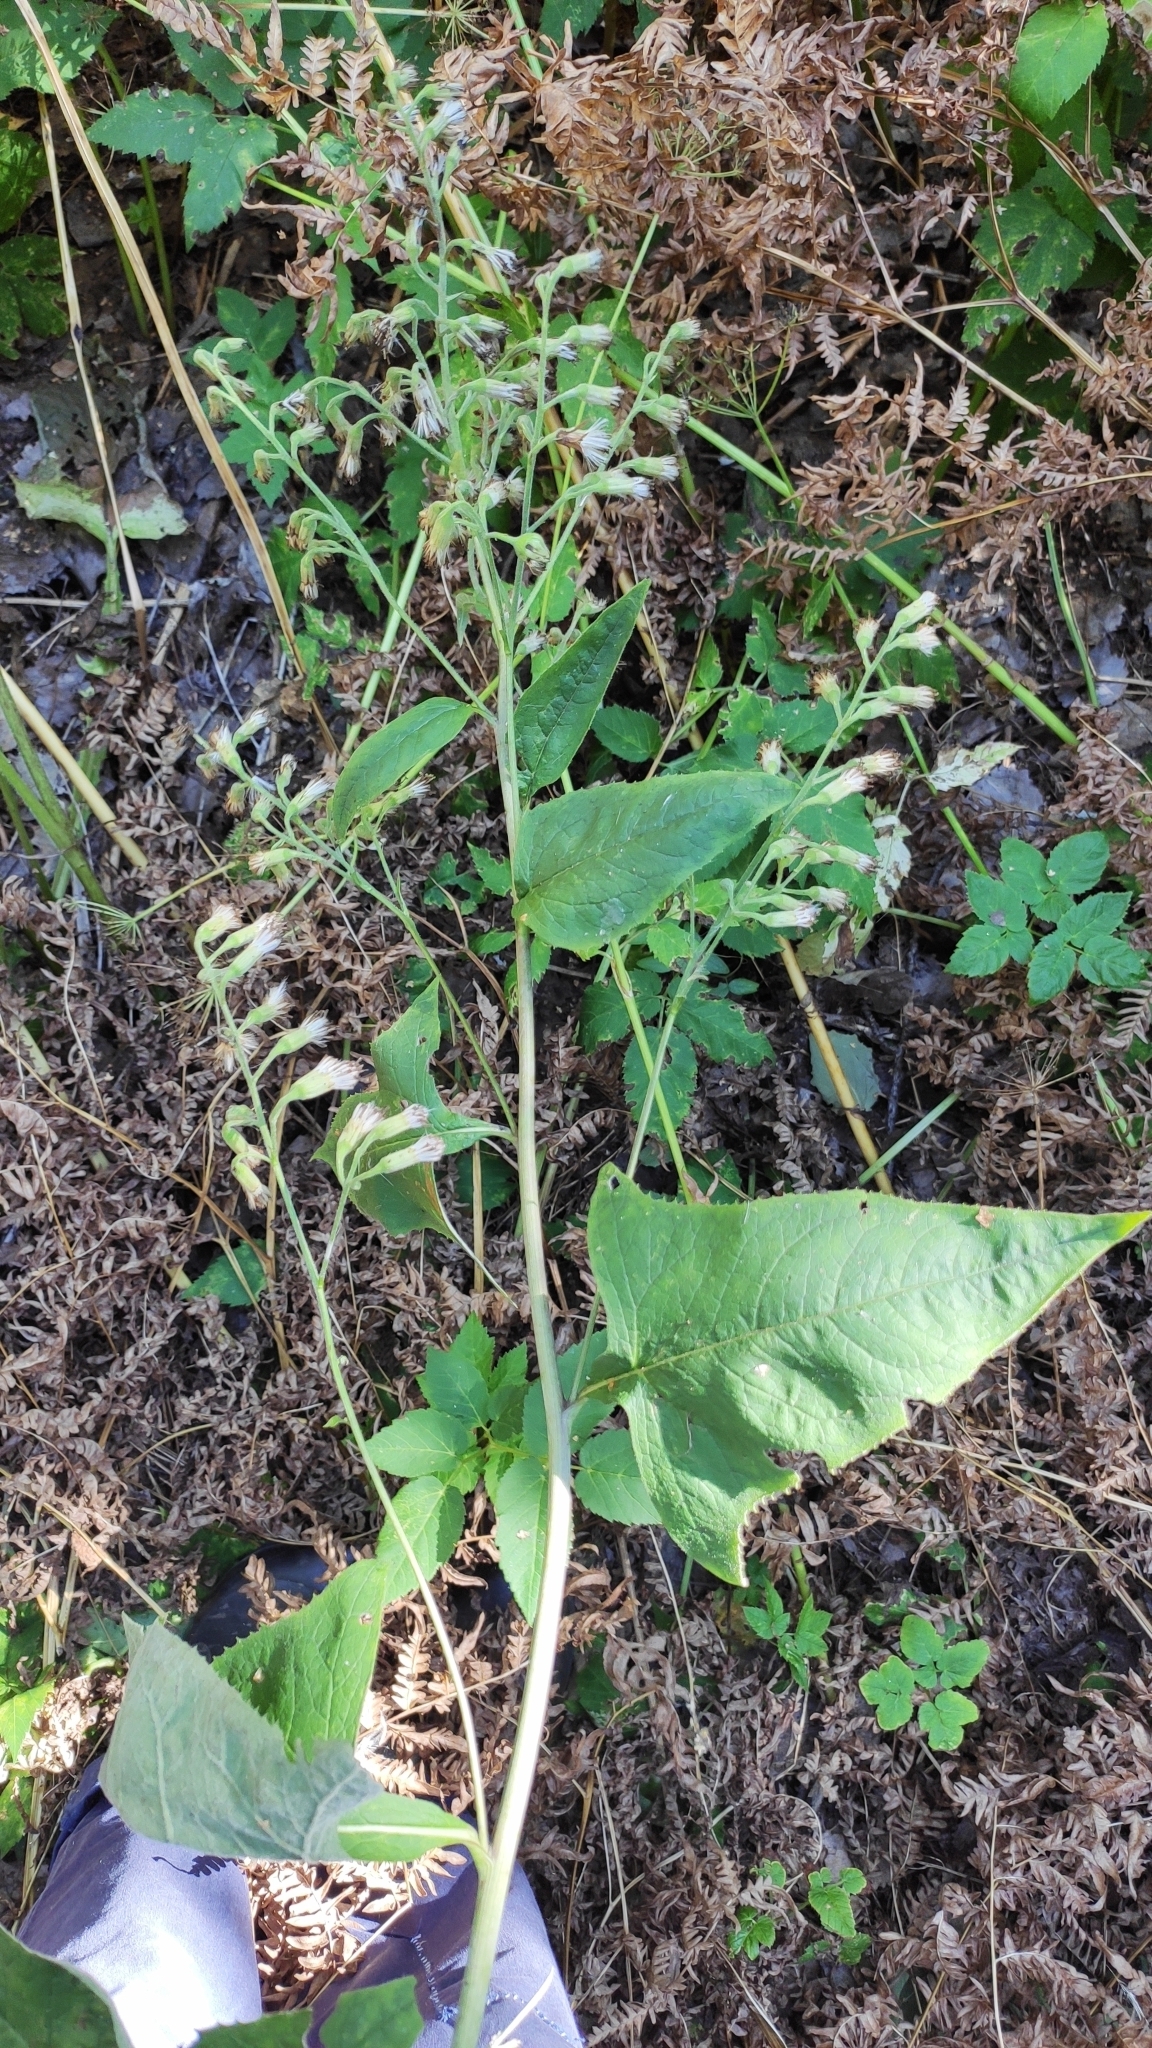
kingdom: Plantae
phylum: Tracheophyta
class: Magnoliopsida
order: Asterales
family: Asteraceae
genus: Parasenecio
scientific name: Parasenecio hastatus
